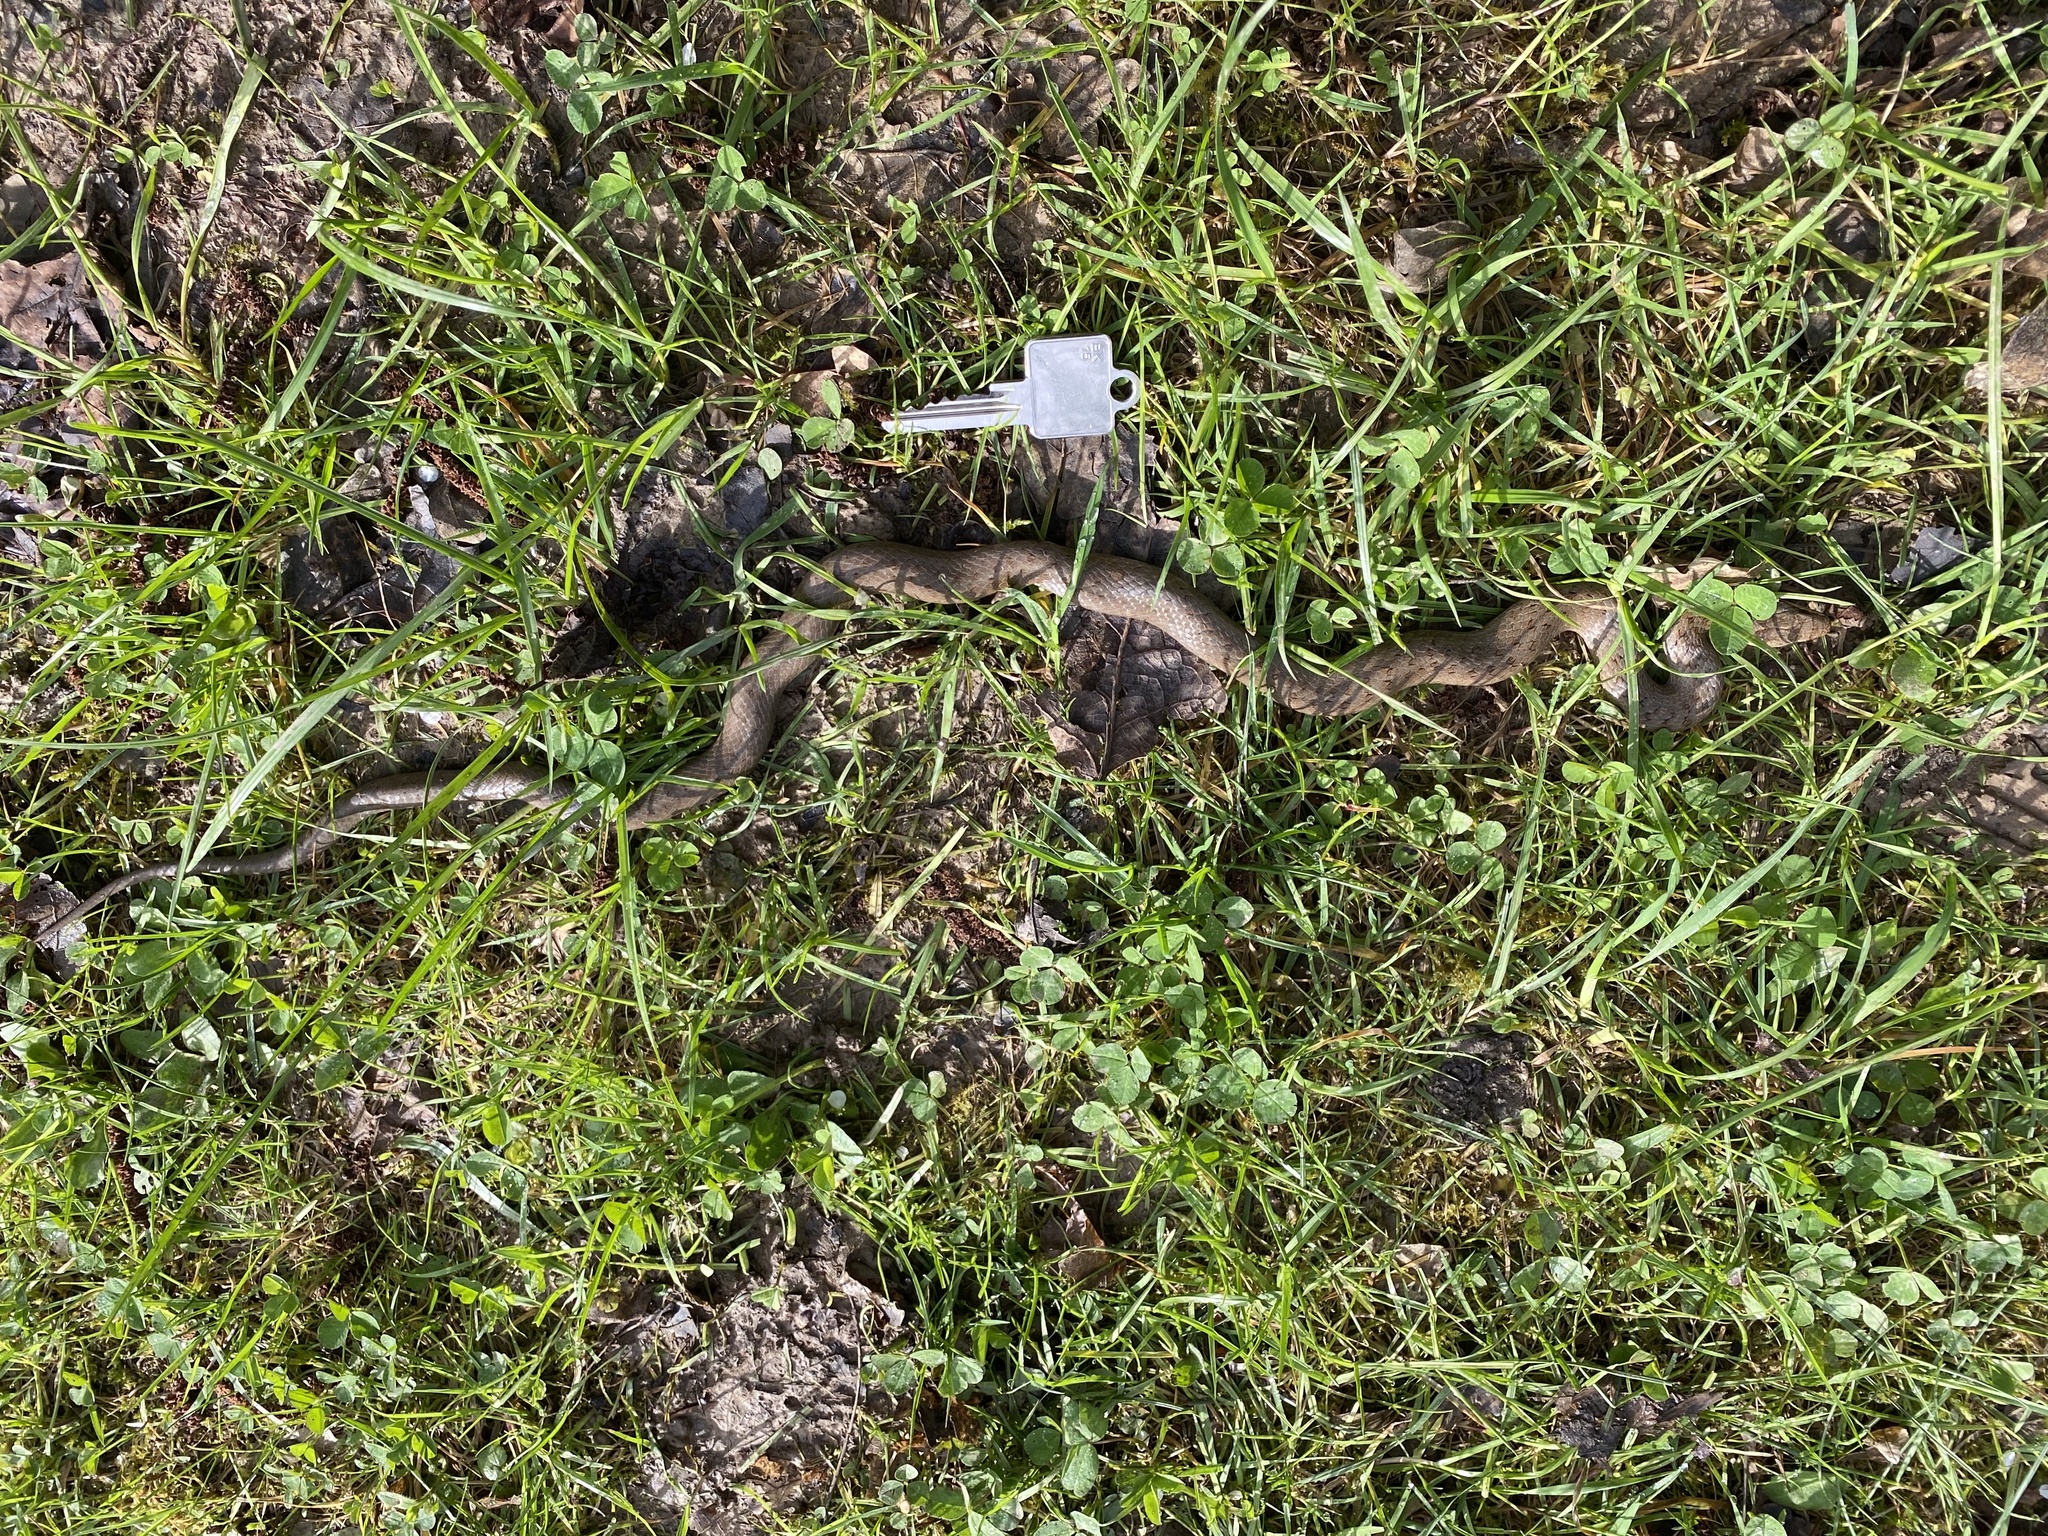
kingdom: Animalia
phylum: Chordata
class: Squamata
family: Colubridae
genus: Coronella
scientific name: Coronella austriaca
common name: Smooth snake
